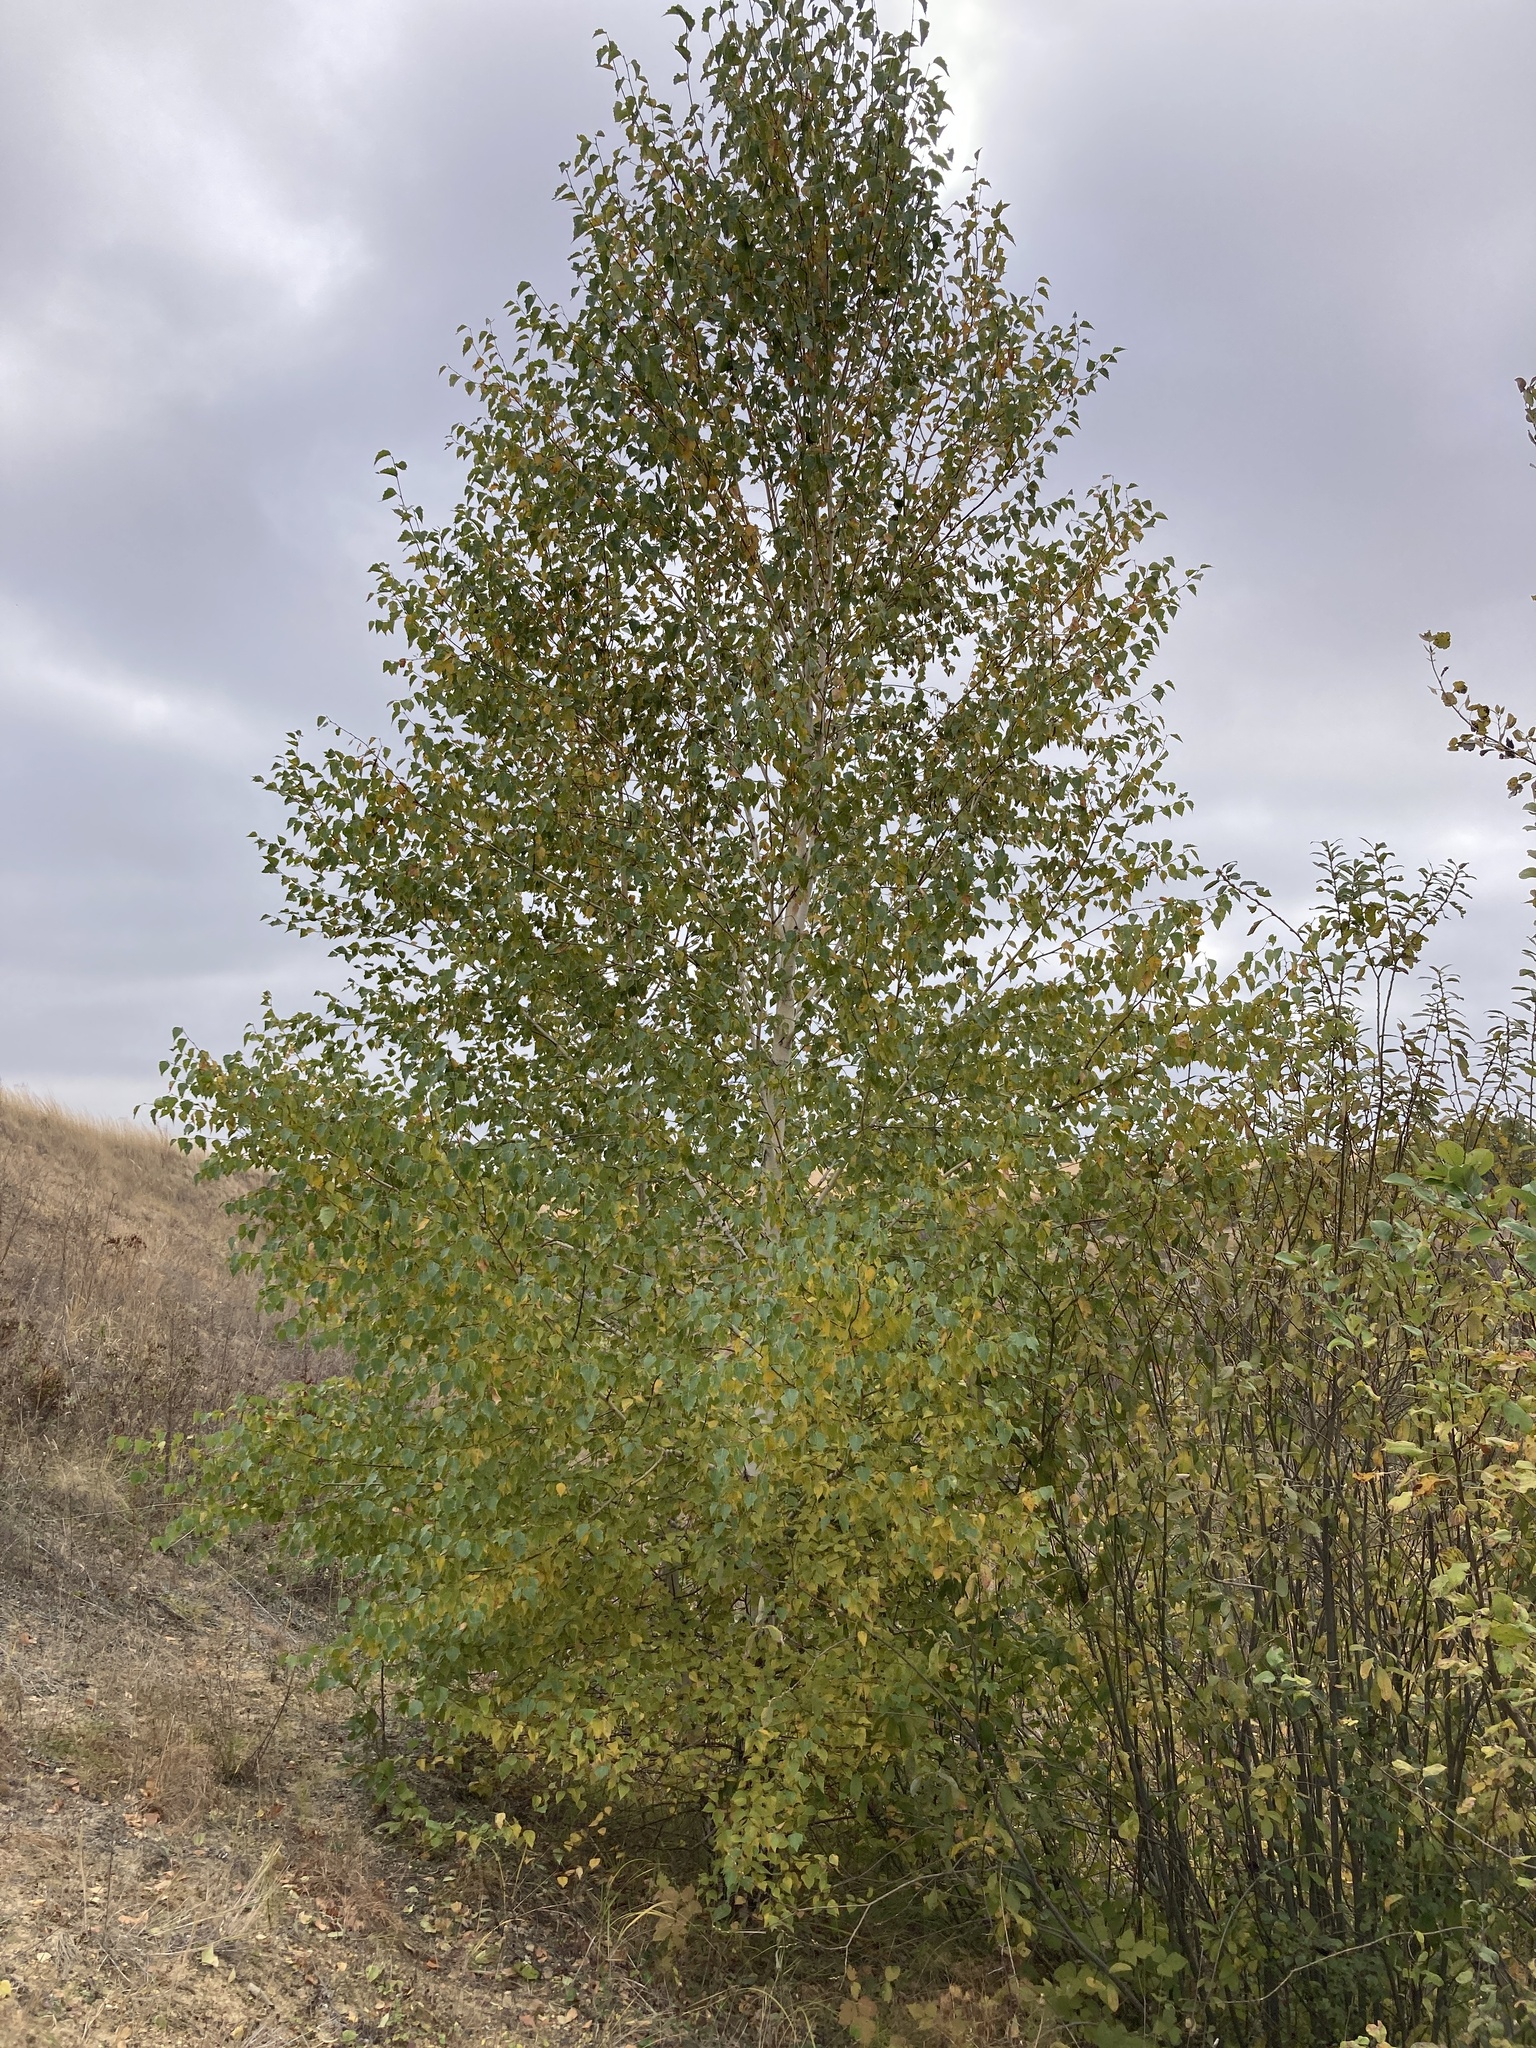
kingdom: Plantae
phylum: Tracheophyta
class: Magnoliopsida
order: Fagales
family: Betulaceae
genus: Betula
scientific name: Betula pendula
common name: Silver birch
